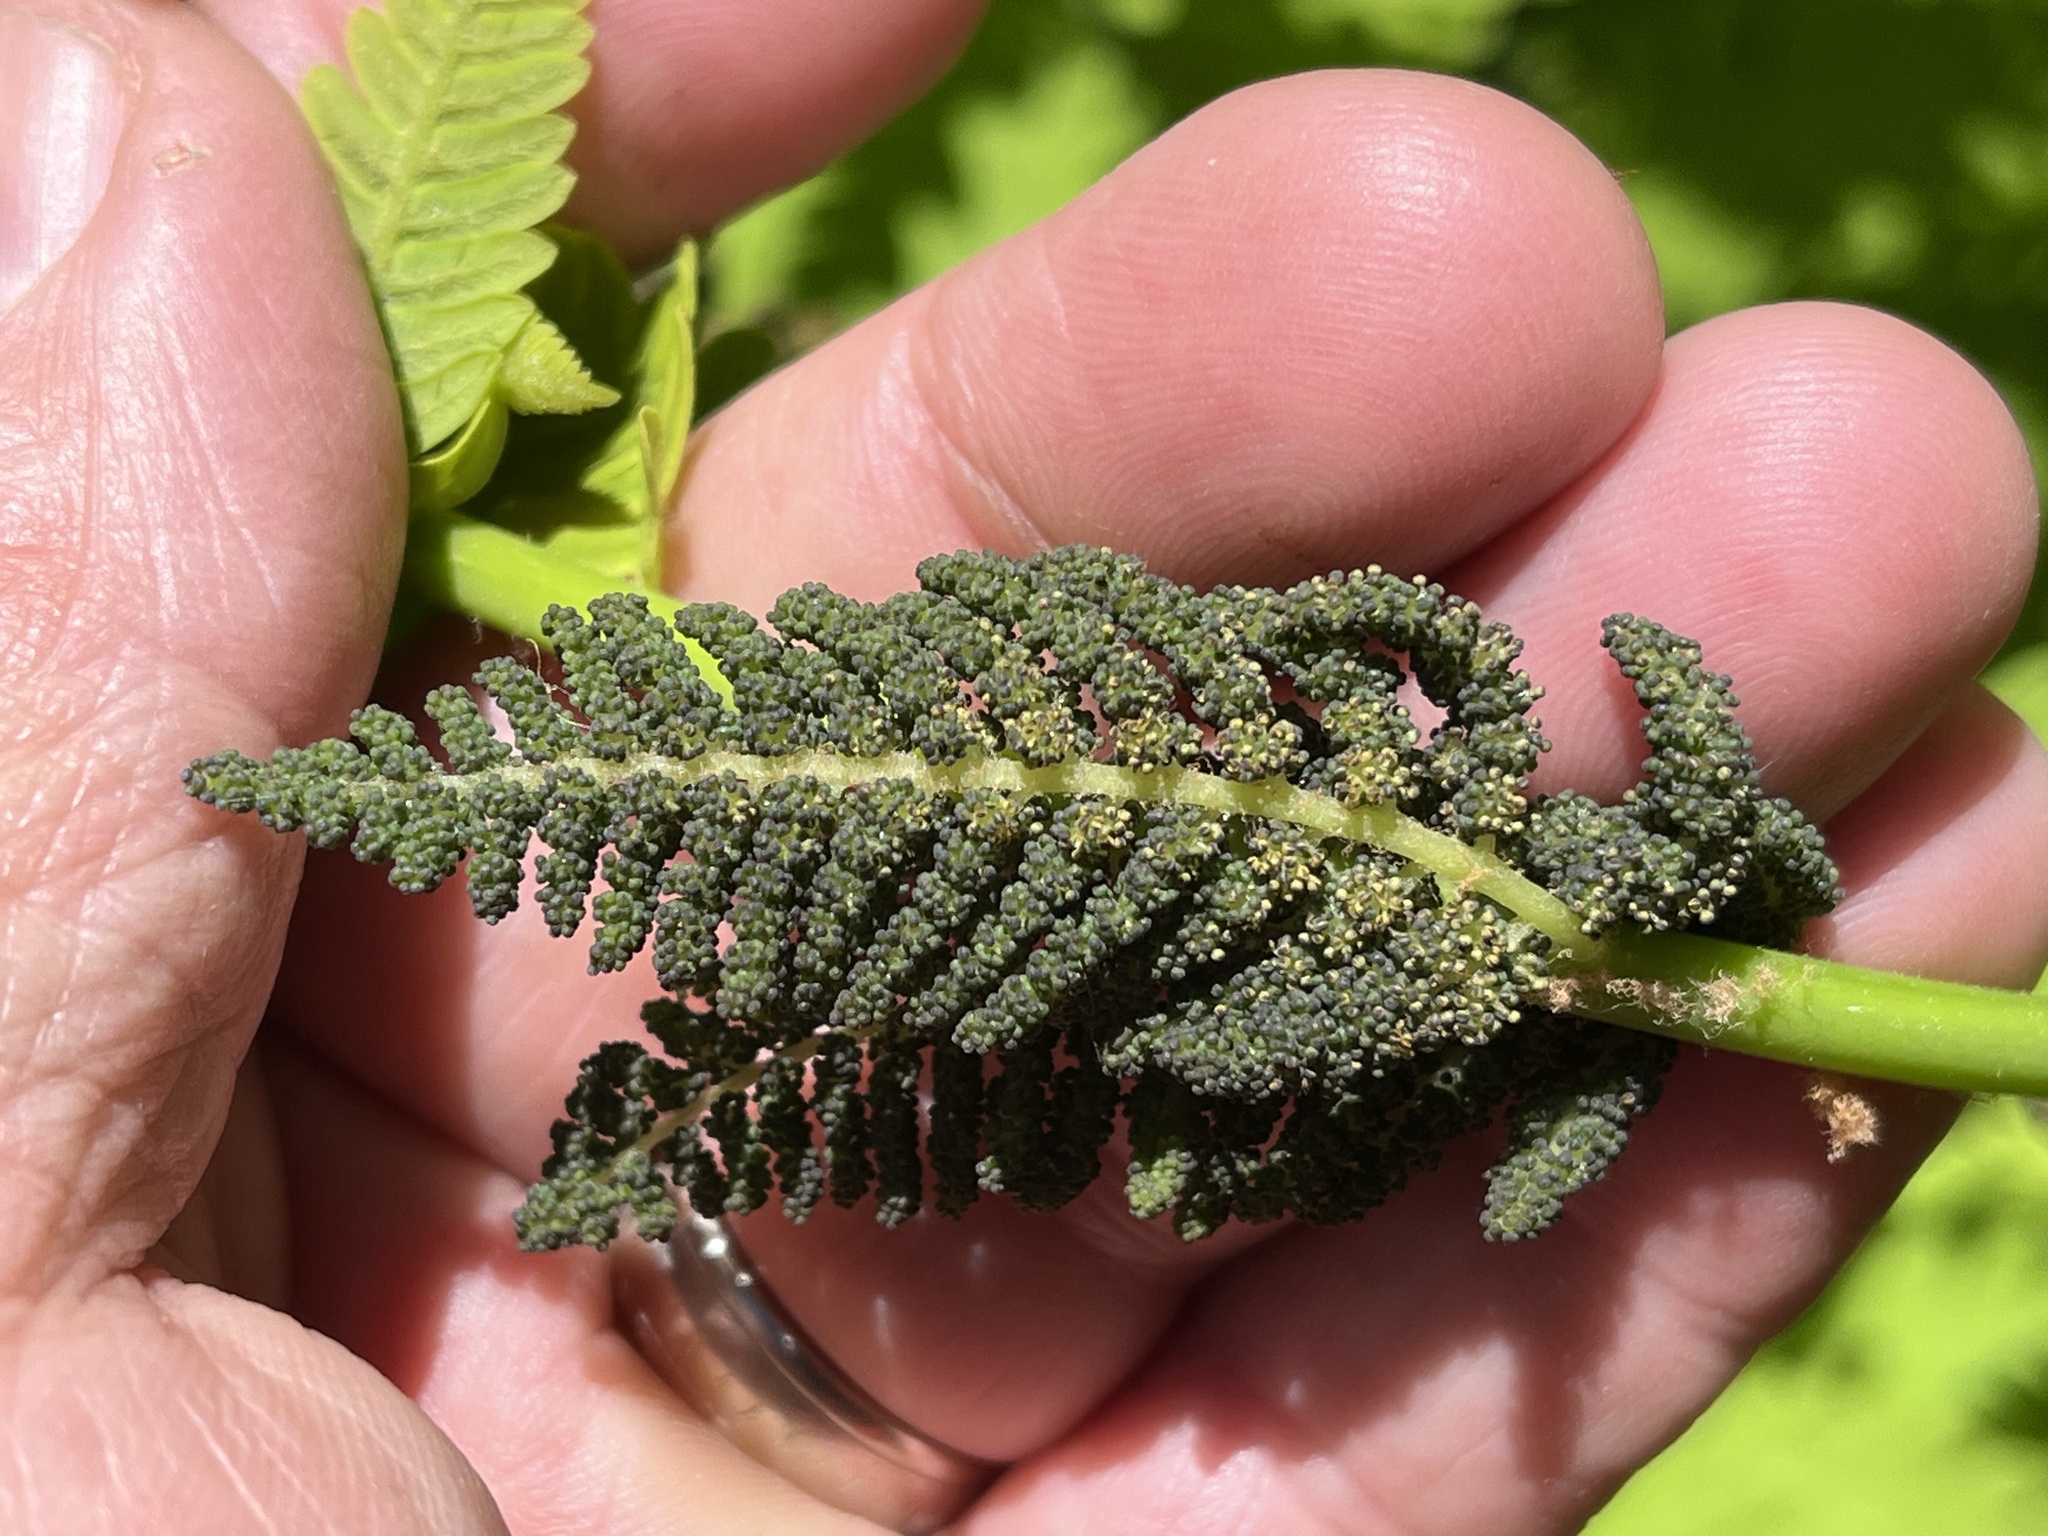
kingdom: Plantae
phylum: Tracheophyta
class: Polypodiopsida
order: Osmundales
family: Osmundaceae
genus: Claytosmunda
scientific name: Claytosmunda claytoniana
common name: Clayton's fern
